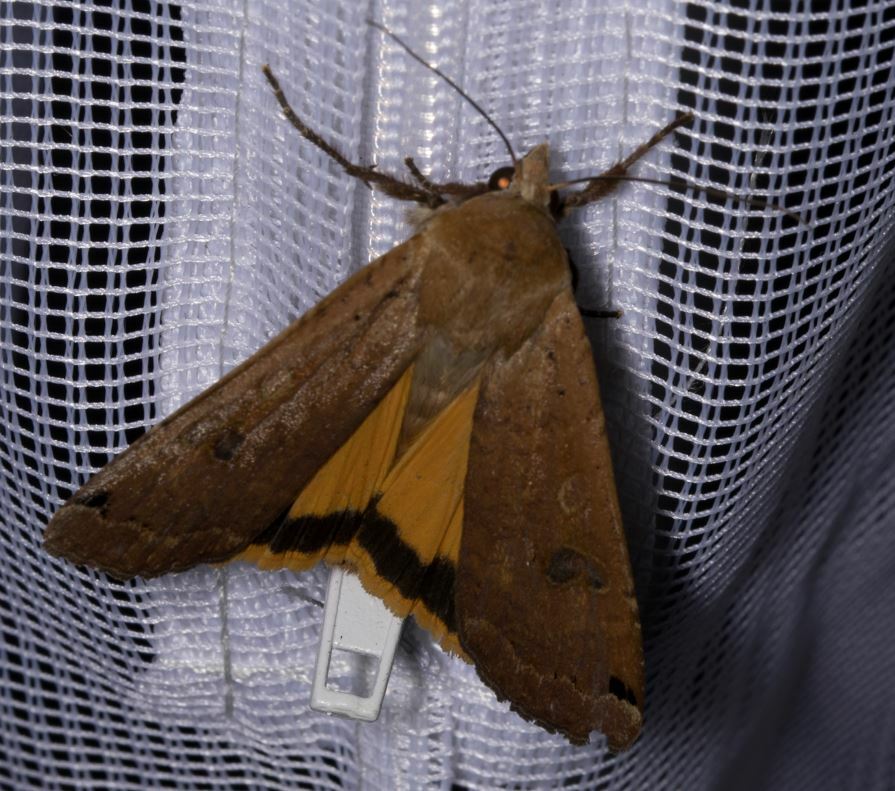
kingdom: Animalia
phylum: Arthropoda
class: Insecta
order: Lepidoptera
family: Noctuidae
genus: Noctua
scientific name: Noctua pronuba
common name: Large yellow underwing
